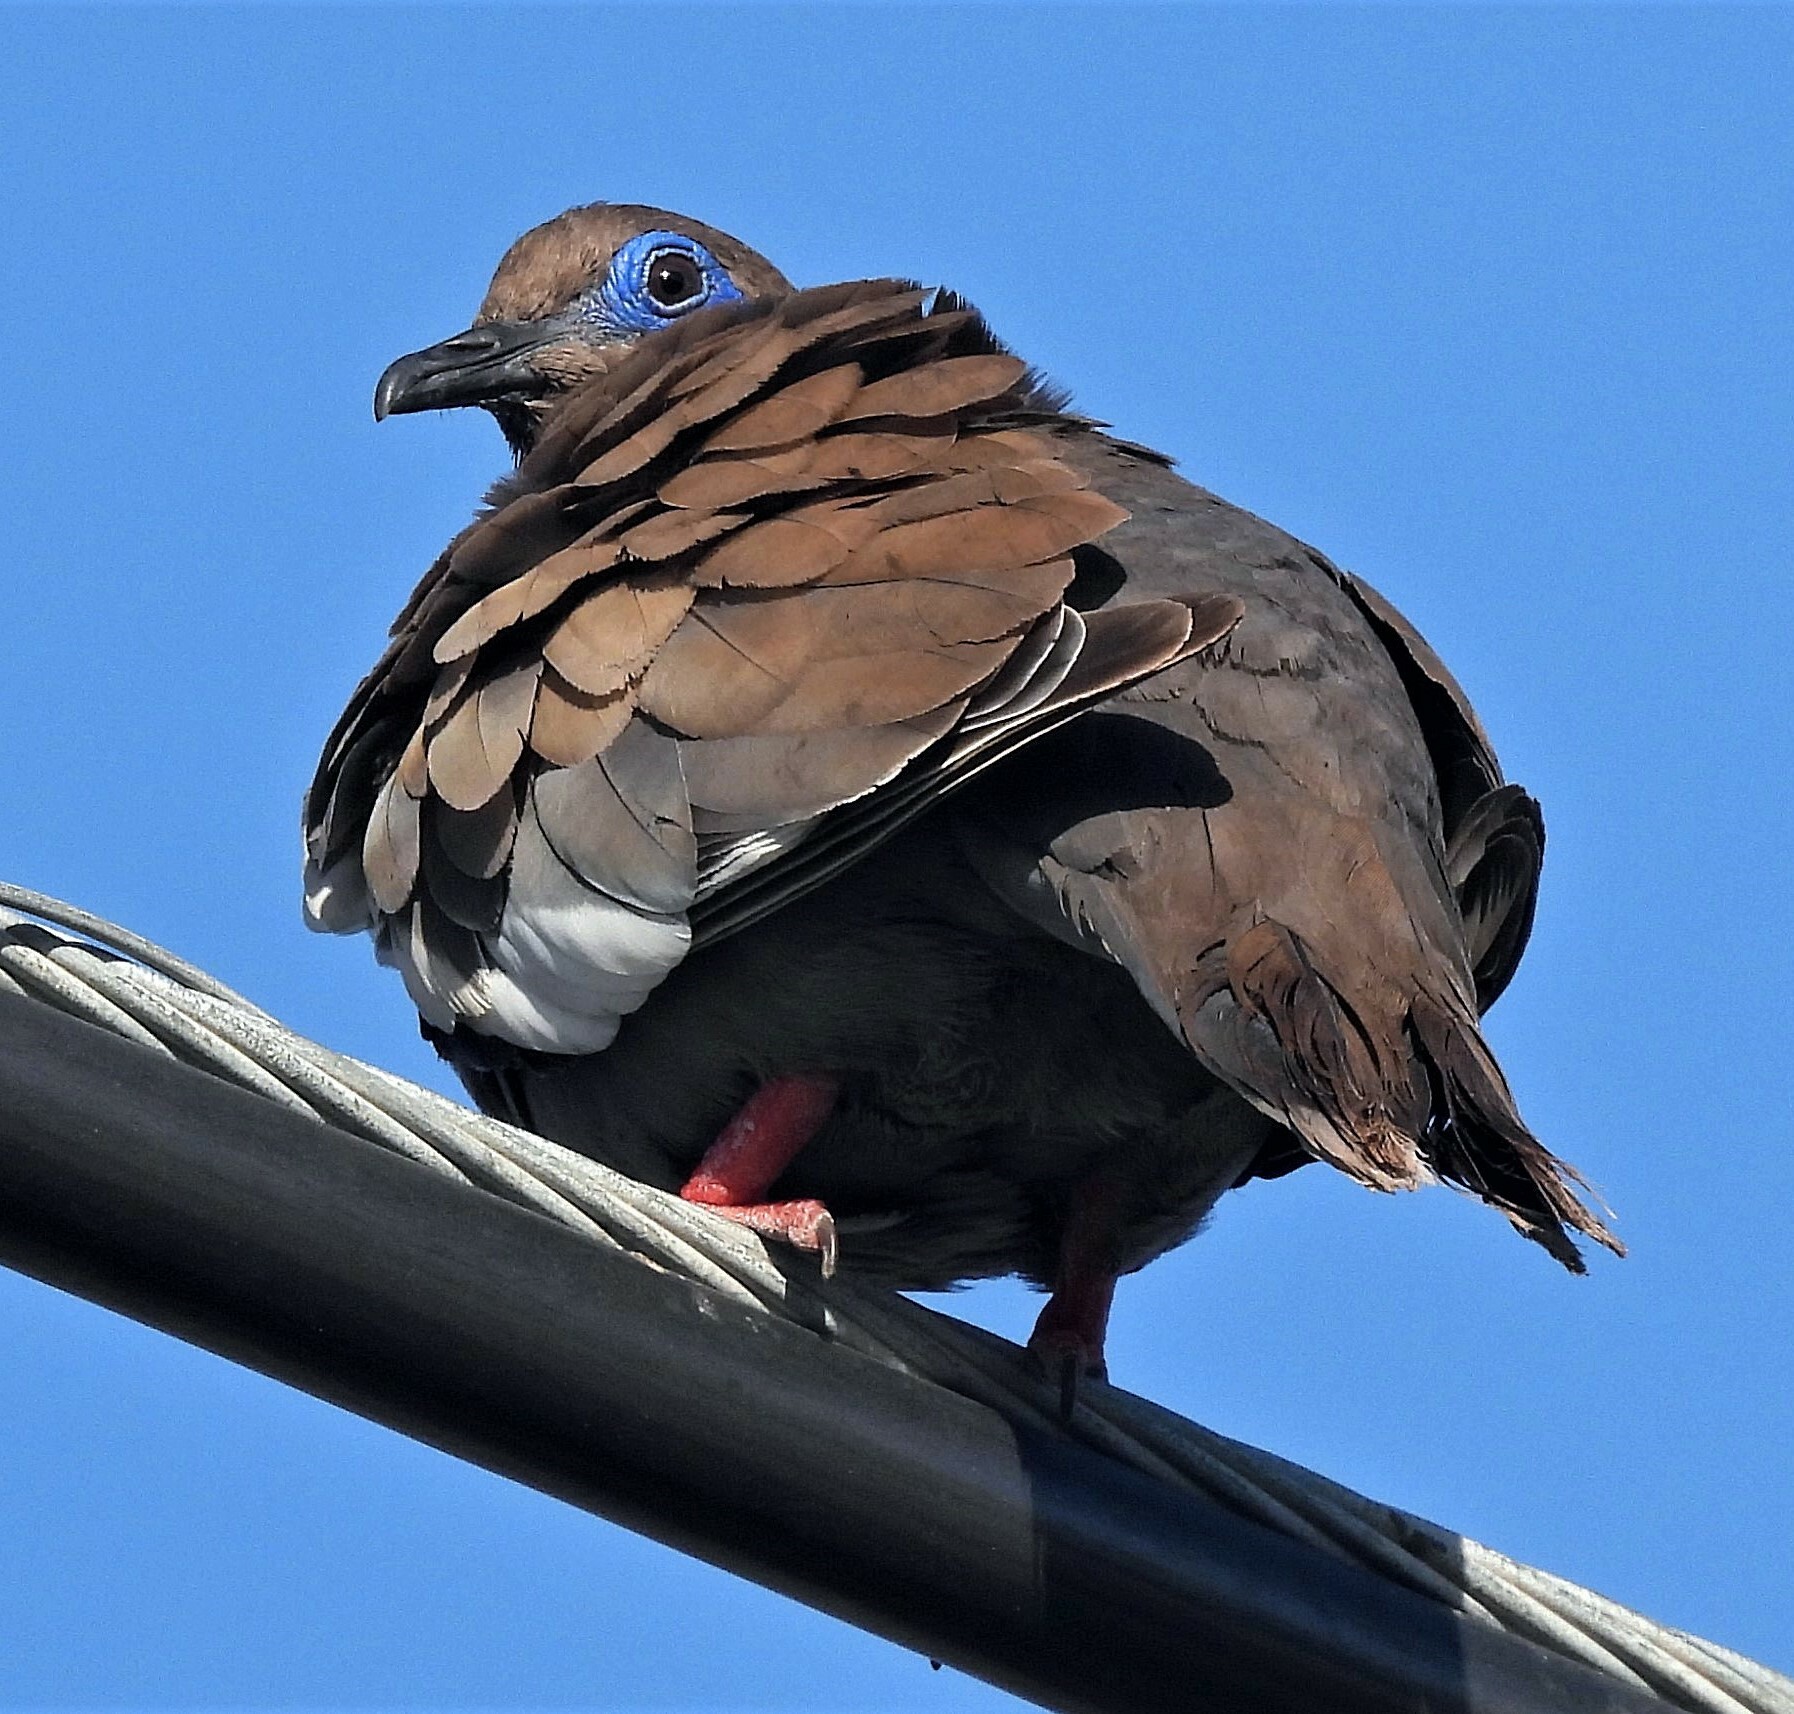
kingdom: Animalia
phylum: Chordata
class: Aves
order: Columbiformes
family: Columbidae
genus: Zenaida
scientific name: Zenaida meloda
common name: West peruvian dove
